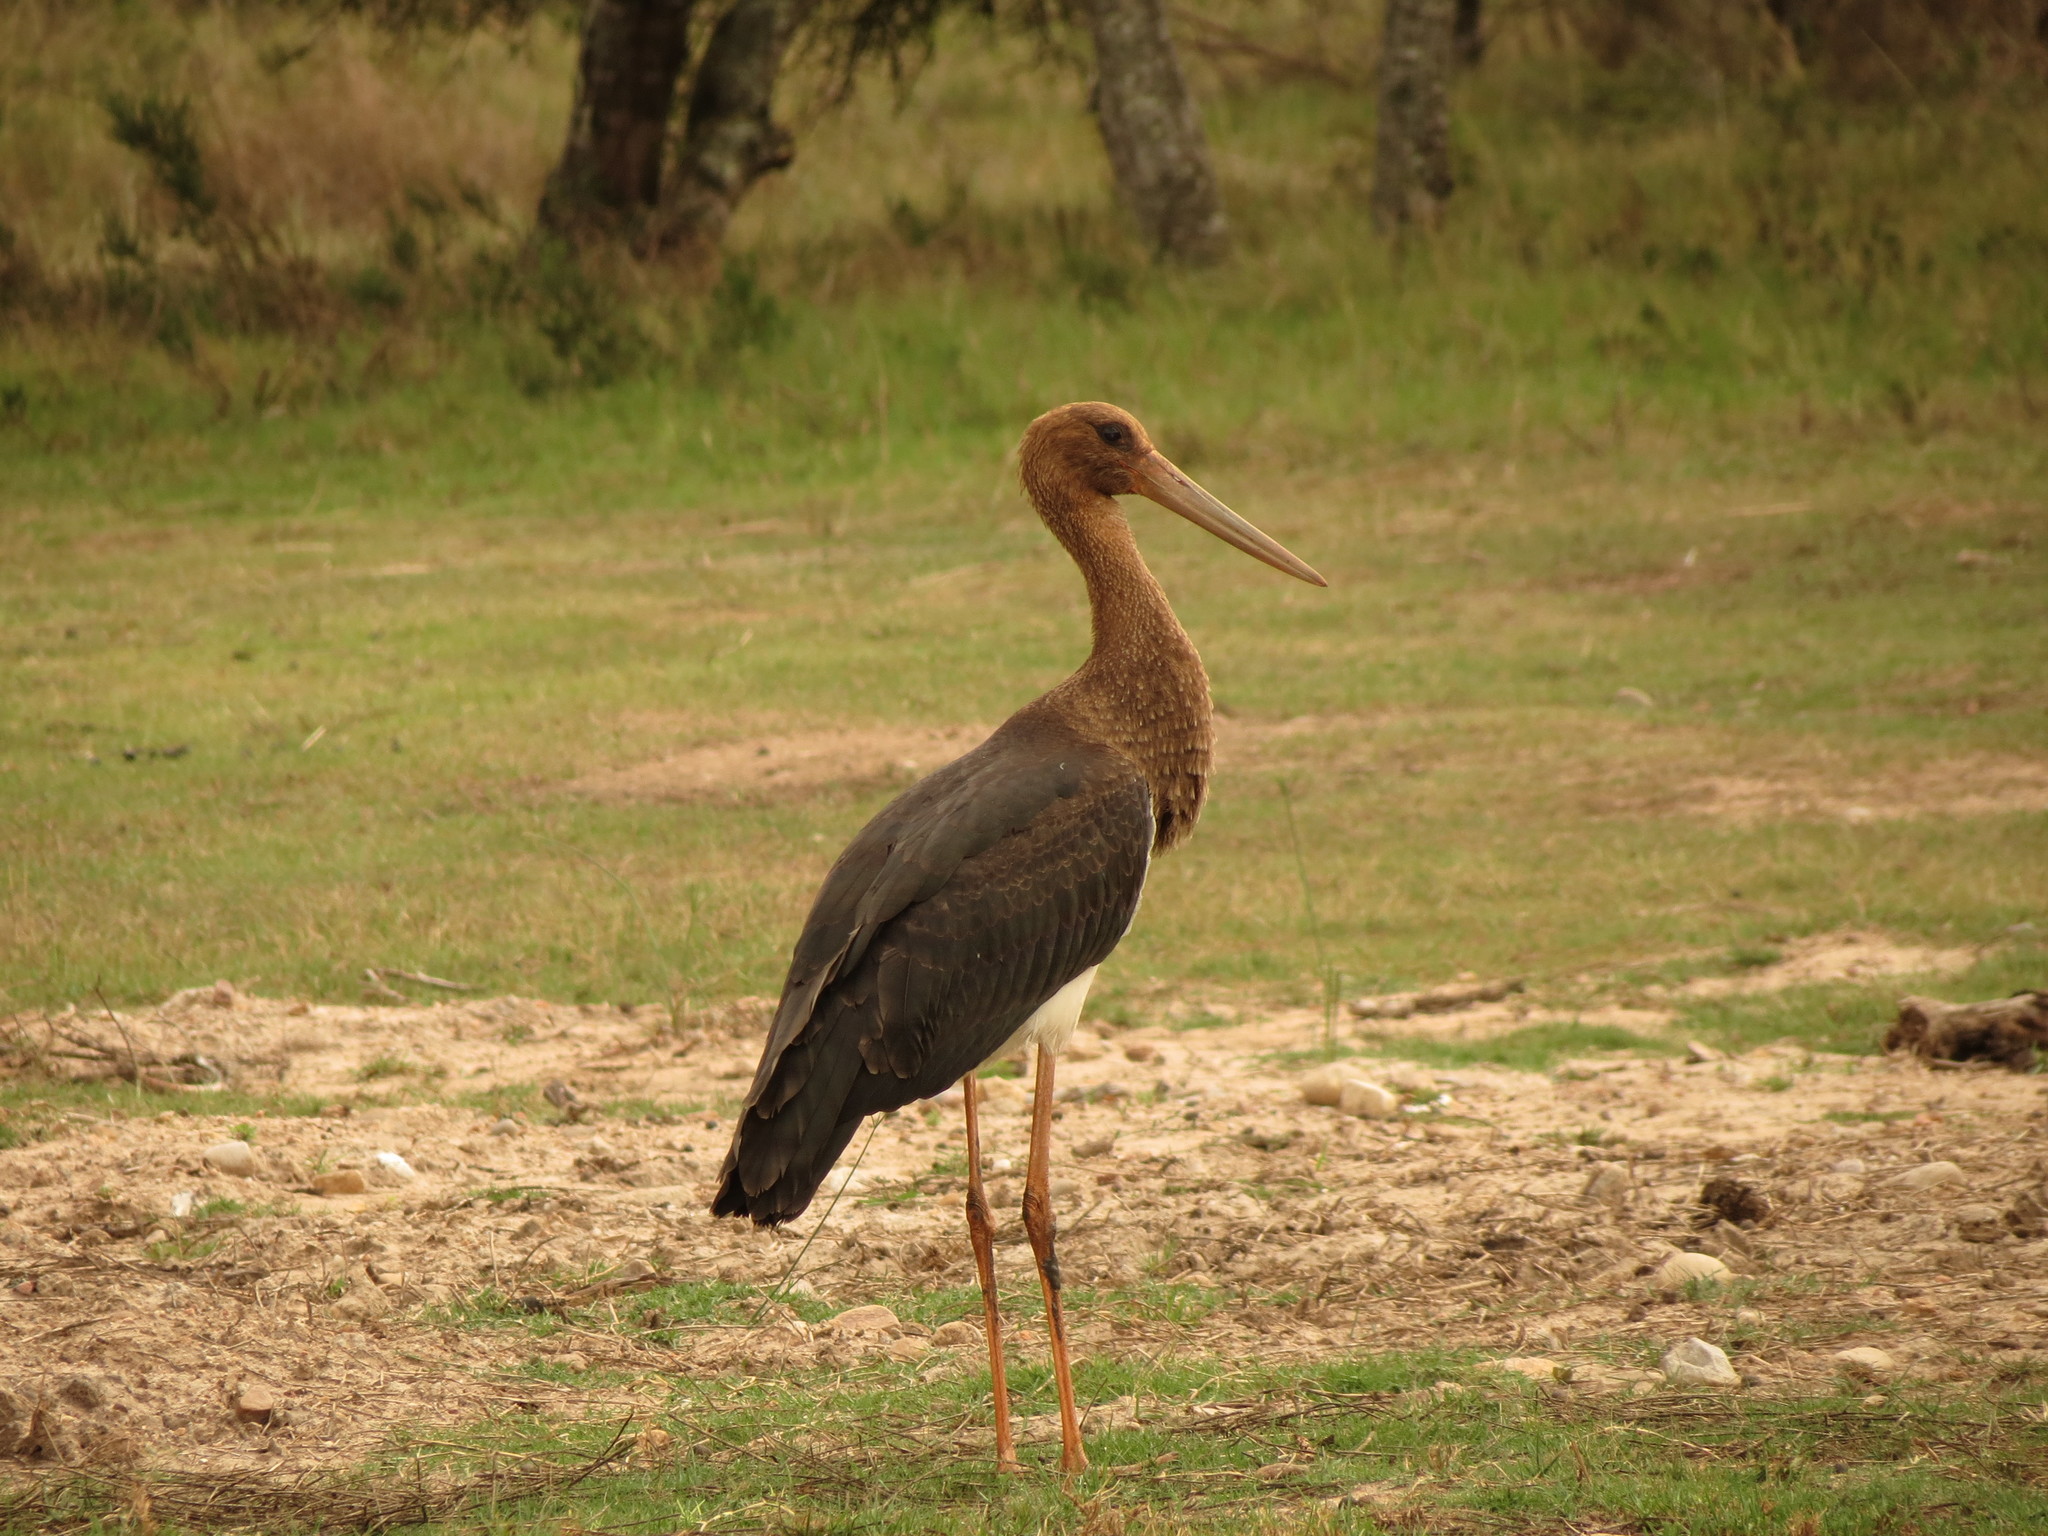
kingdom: Animalia
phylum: Chordata
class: Aves
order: Ciconiiformes
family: Ciconiidae
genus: Ciconia
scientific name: Ciconia nigra
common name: Black stork
